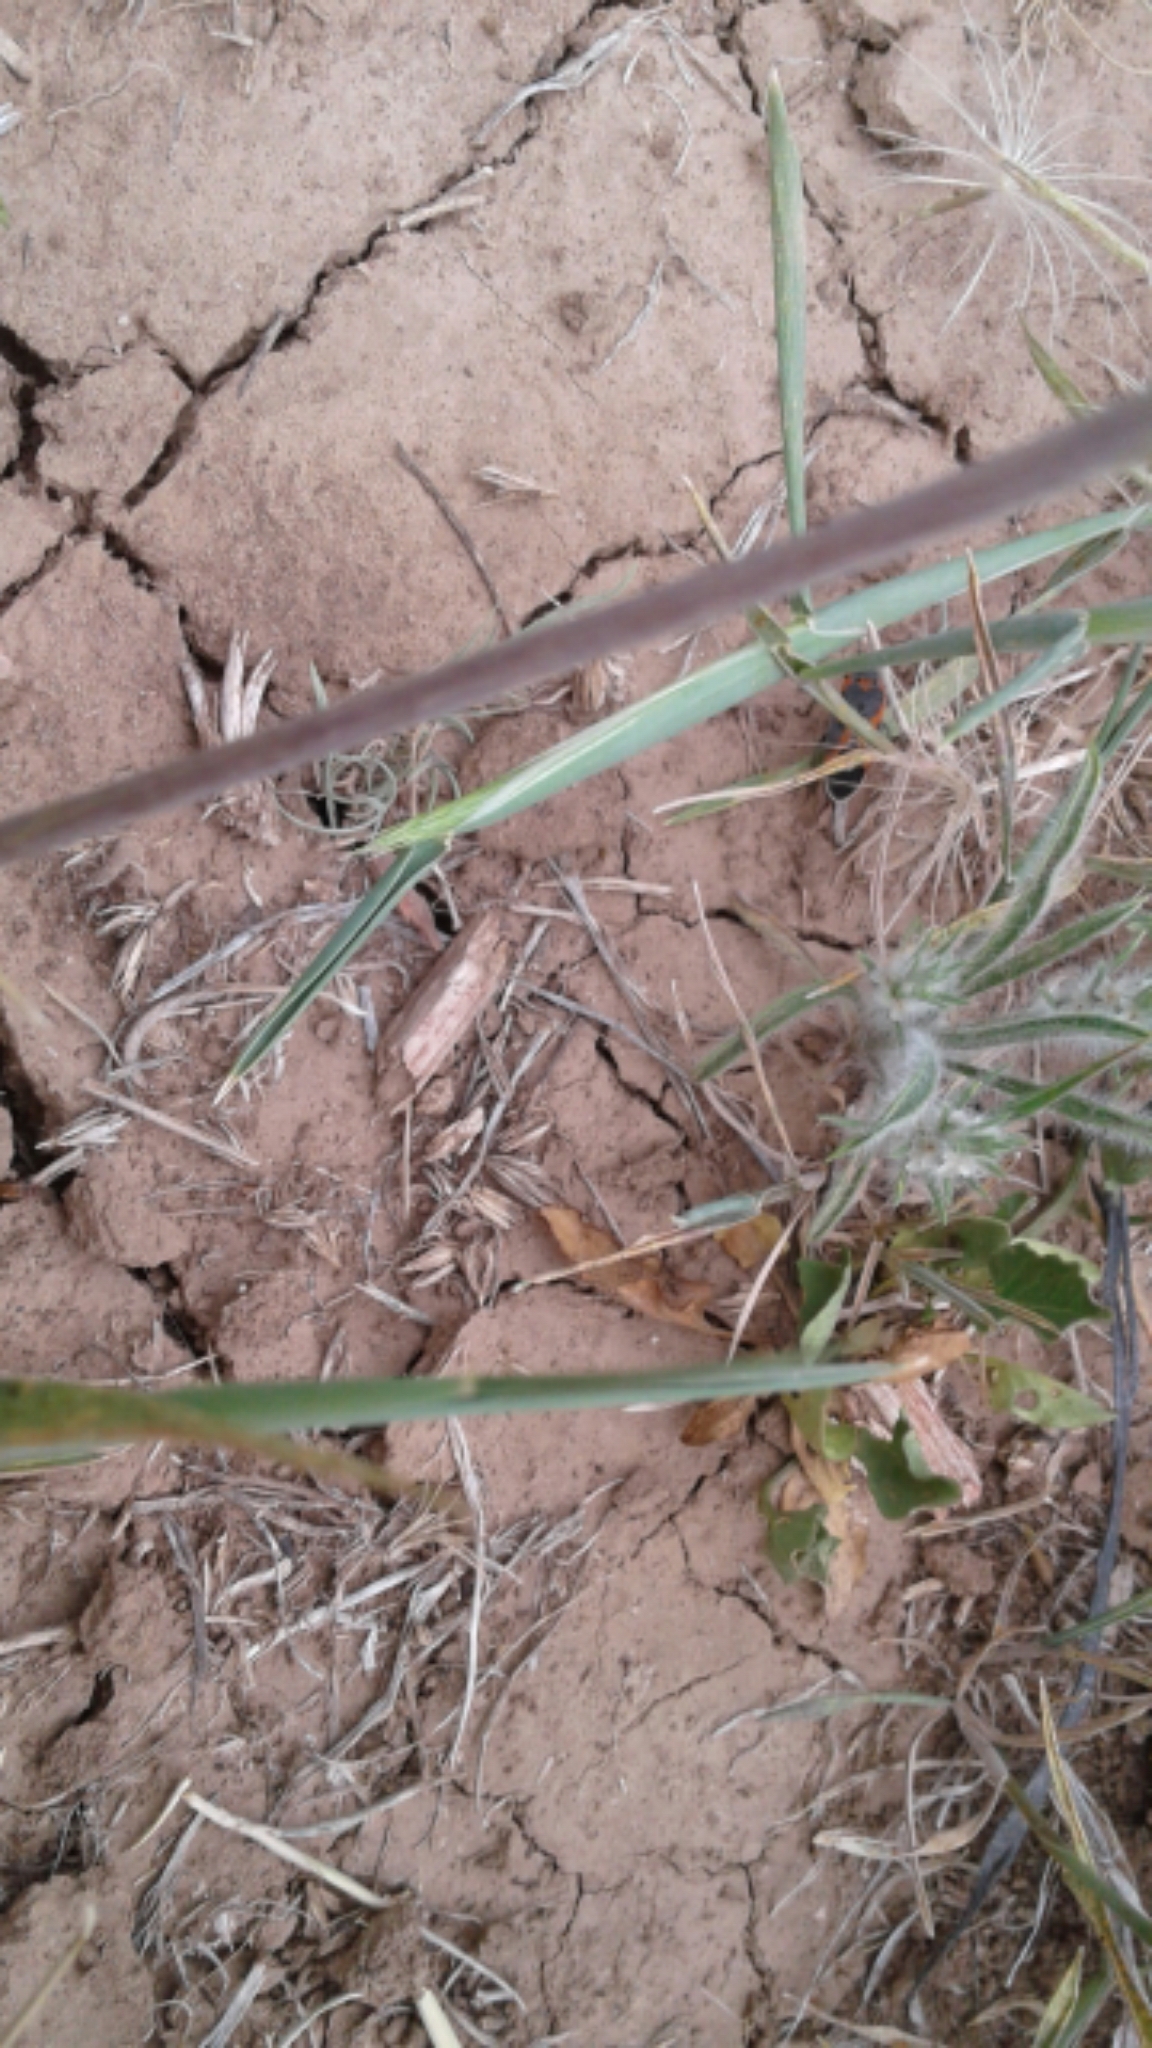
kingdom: Animalia
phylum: Arthropoda
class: Insecta
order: Hemiptera
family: Lygaeidae
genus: Lygaeus
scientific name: Lygaeus kalmii
